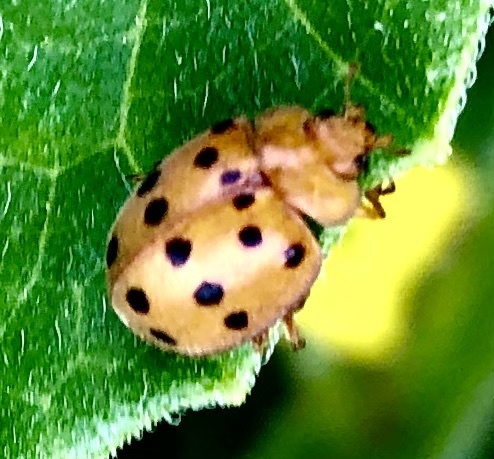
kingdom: Animalia
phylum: Arthropoda
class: Insecta
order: Coleoptera
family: Coccinellidae
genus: Epilachna
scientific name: Epilachna varivestis
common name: Ladybird beetle
